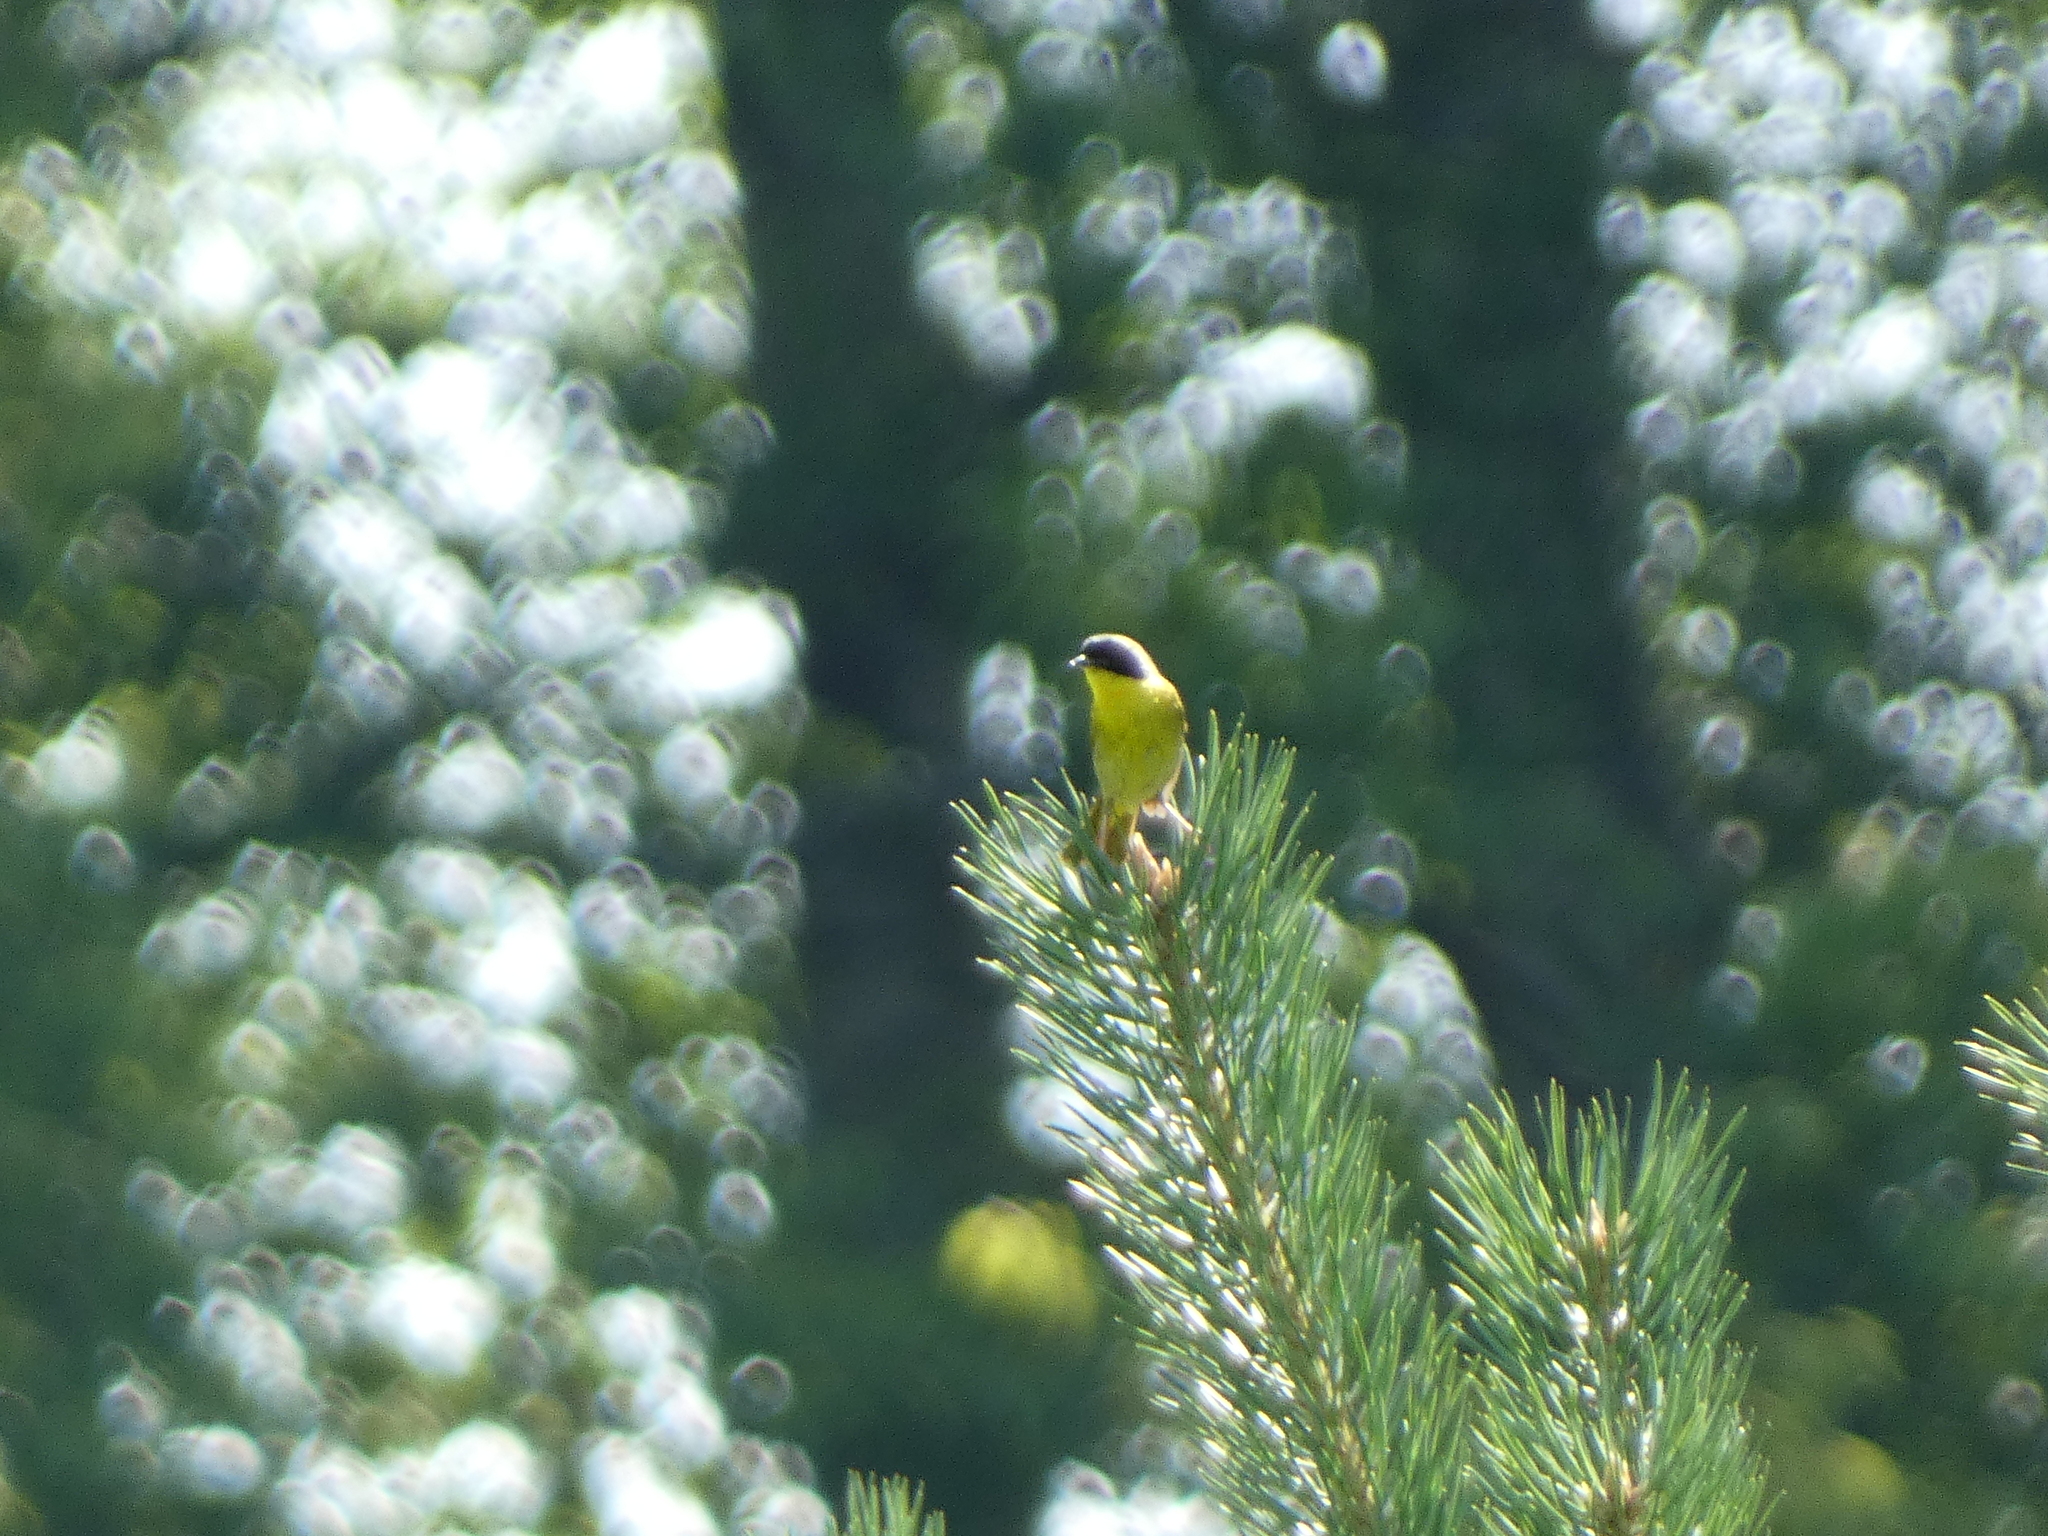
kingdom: Animalia
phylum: Chordata
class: Aves
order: Passeriformes
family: Parulidae
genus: Geothlypis
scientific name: Geothlypis trichas
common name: Common yellowthroat
